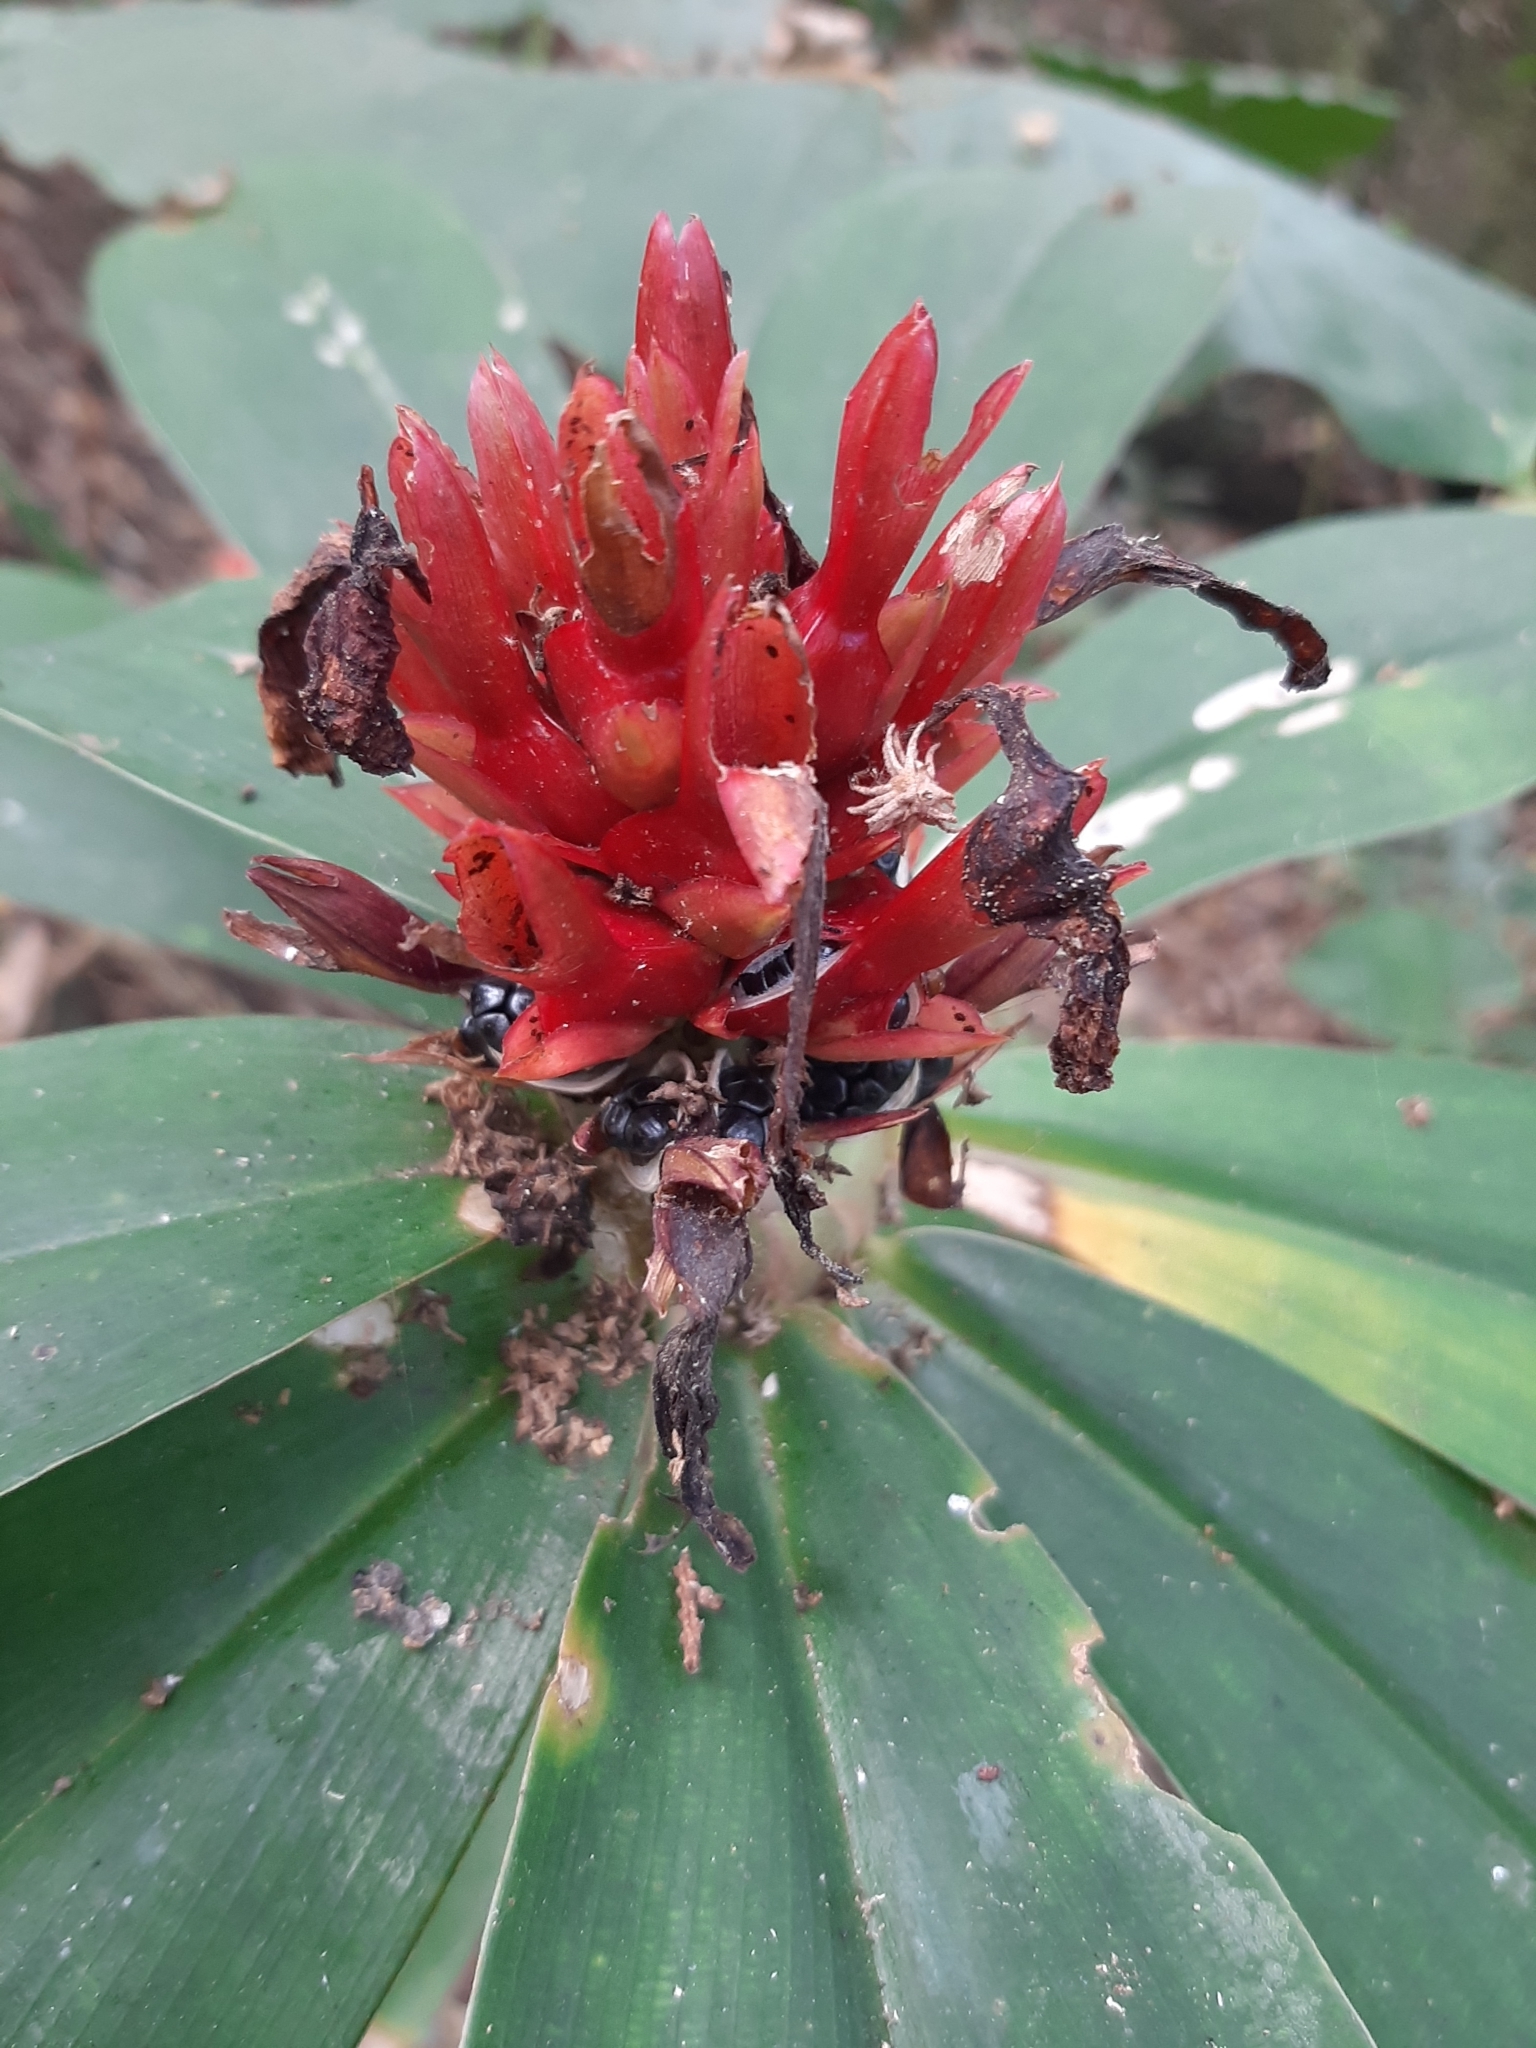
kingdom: Plantae
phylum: Tracheophyta
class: Liliopsida
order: Zingiberales
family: Costaceae
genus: Hellenia
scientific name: Hellenia speciosa
